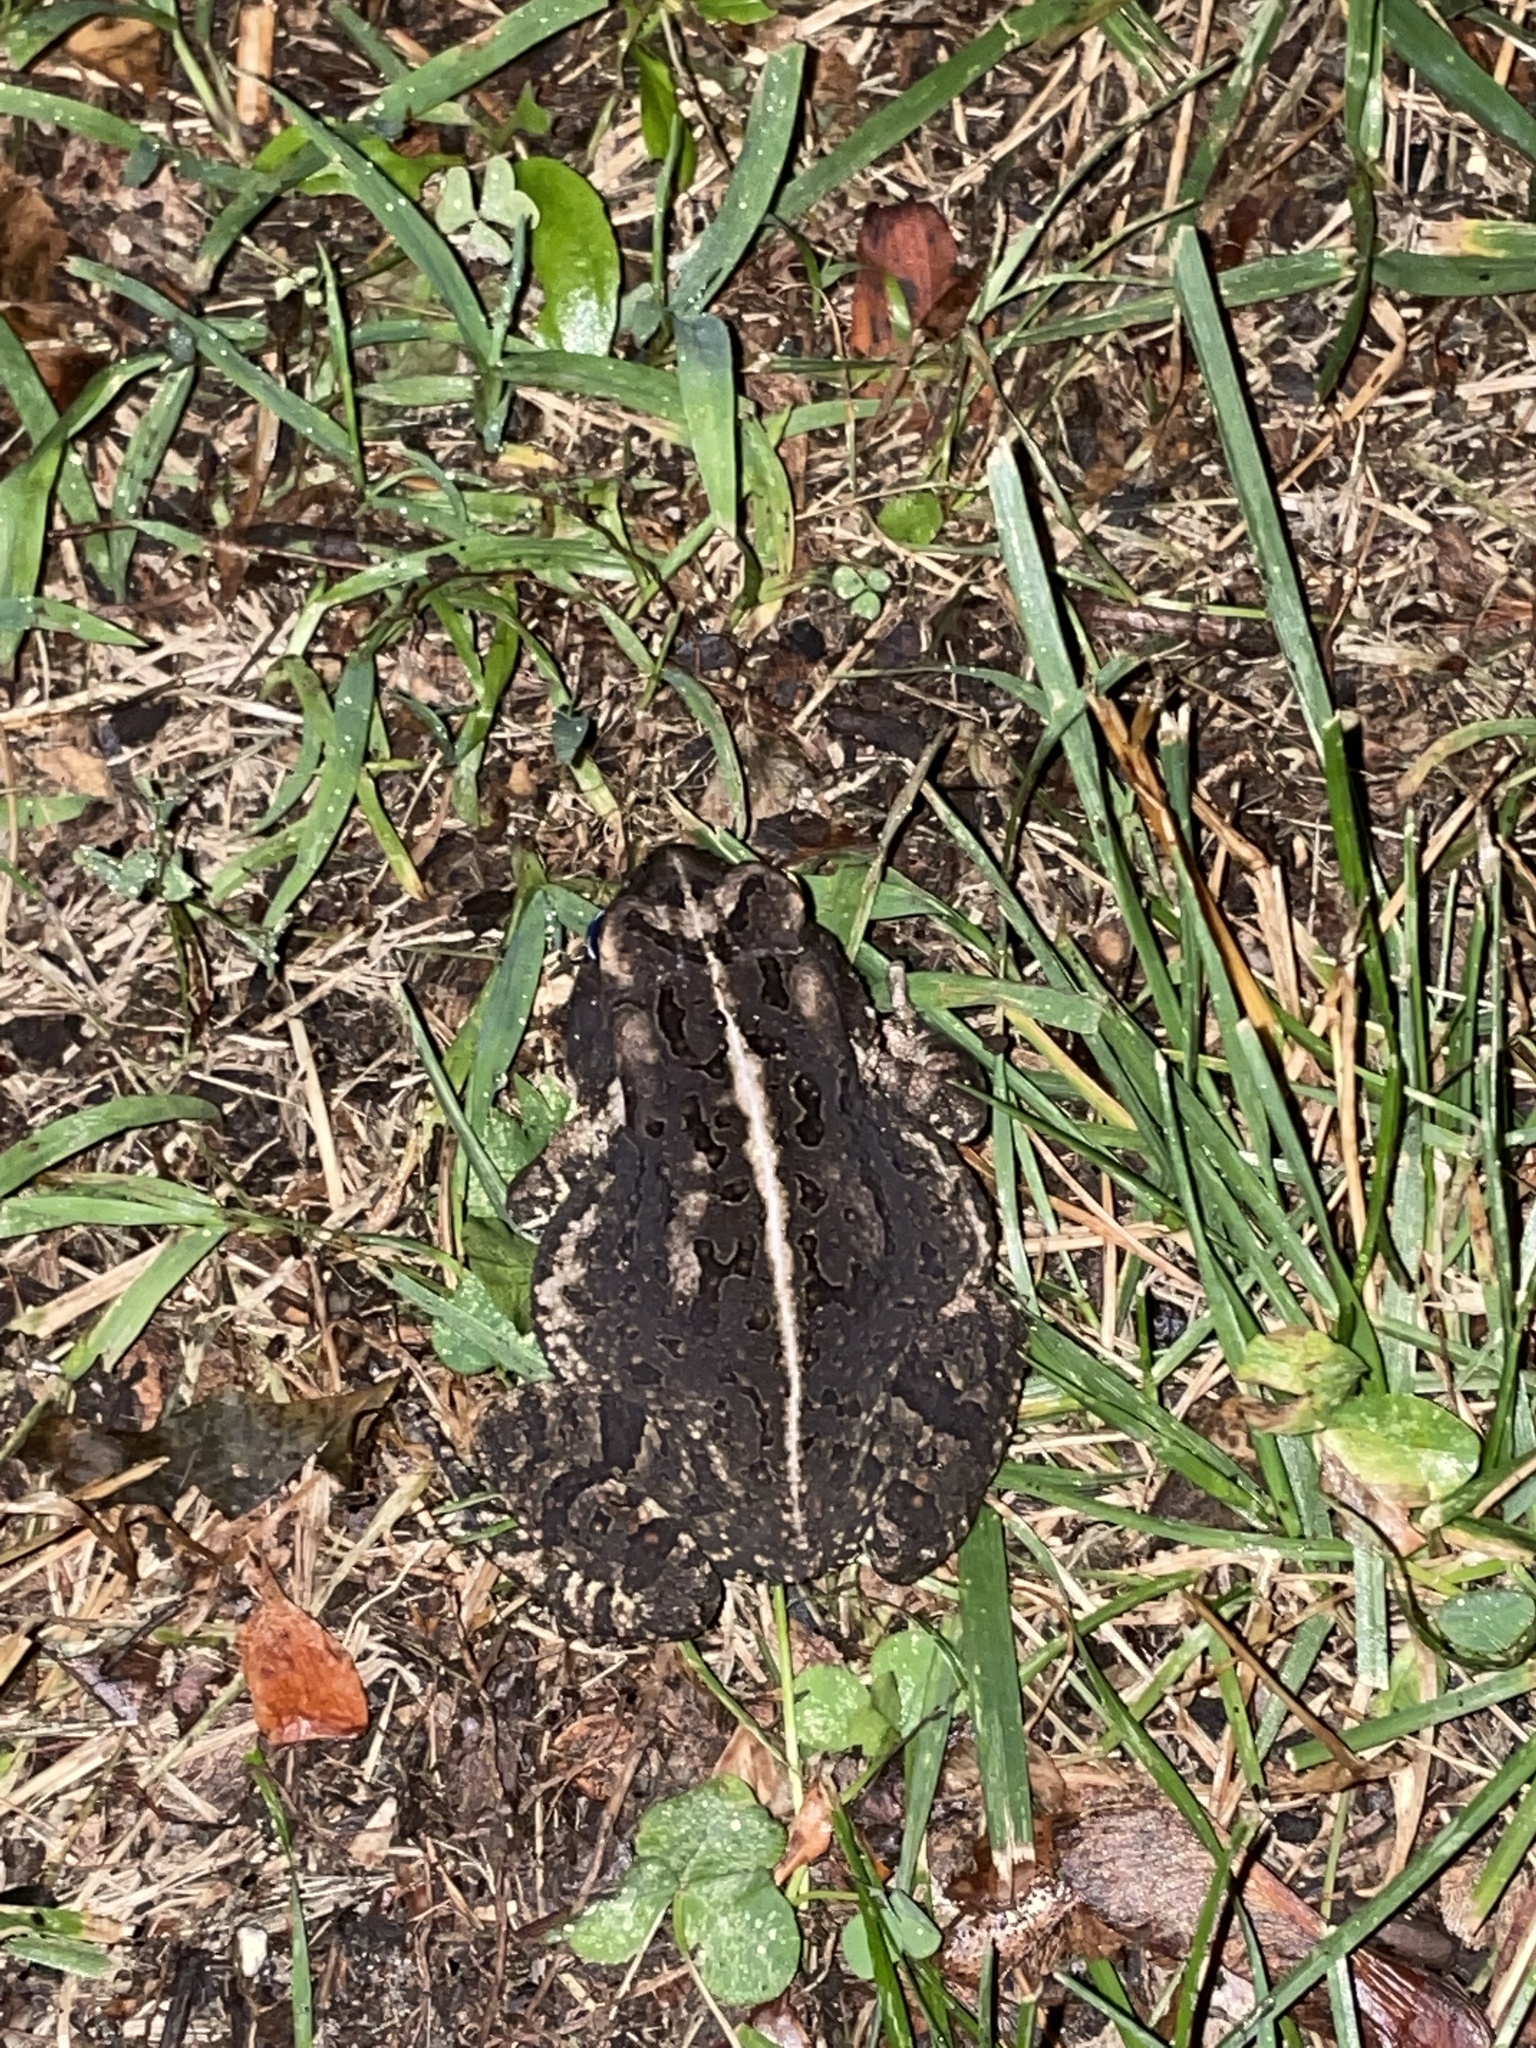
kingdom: Animalia
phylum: Chordata
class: Amphibia
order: Anura
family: Bufonidae
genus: Anaxyrus
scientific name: Anaxyrus fowleri
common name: Fowler's toad
